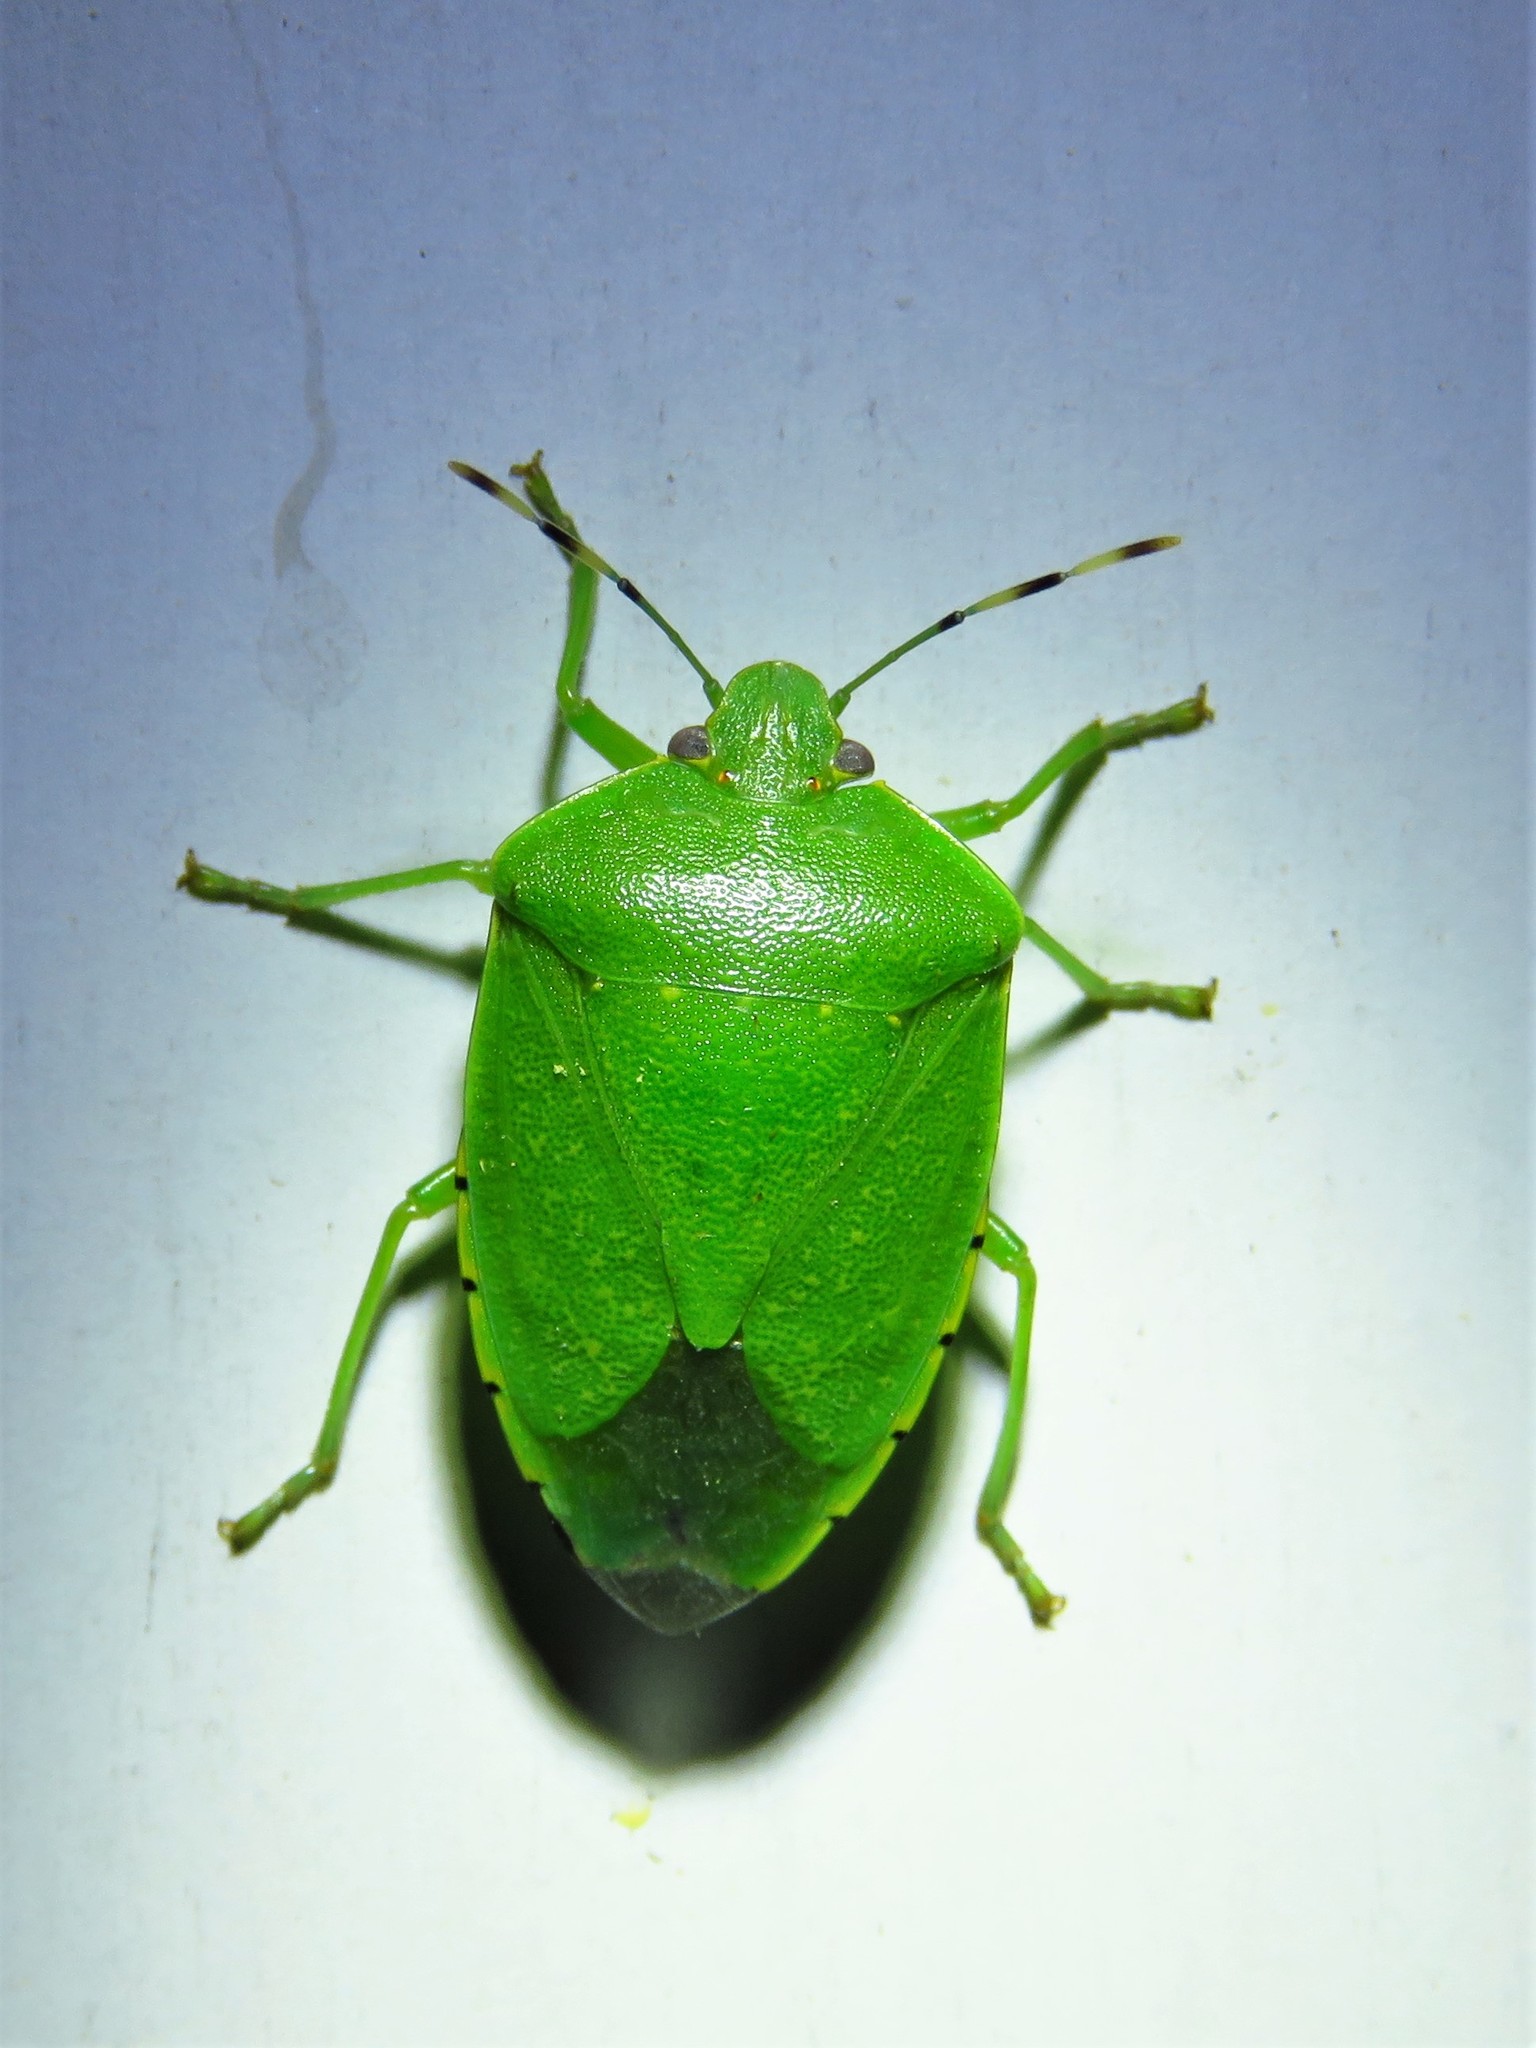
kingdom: Animalia
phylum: Arthropoda
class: Insecta
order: Hemiptera
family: Pentatomidae
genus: Chinavia
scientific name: Chinavia hilaris
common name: Green stink bug
